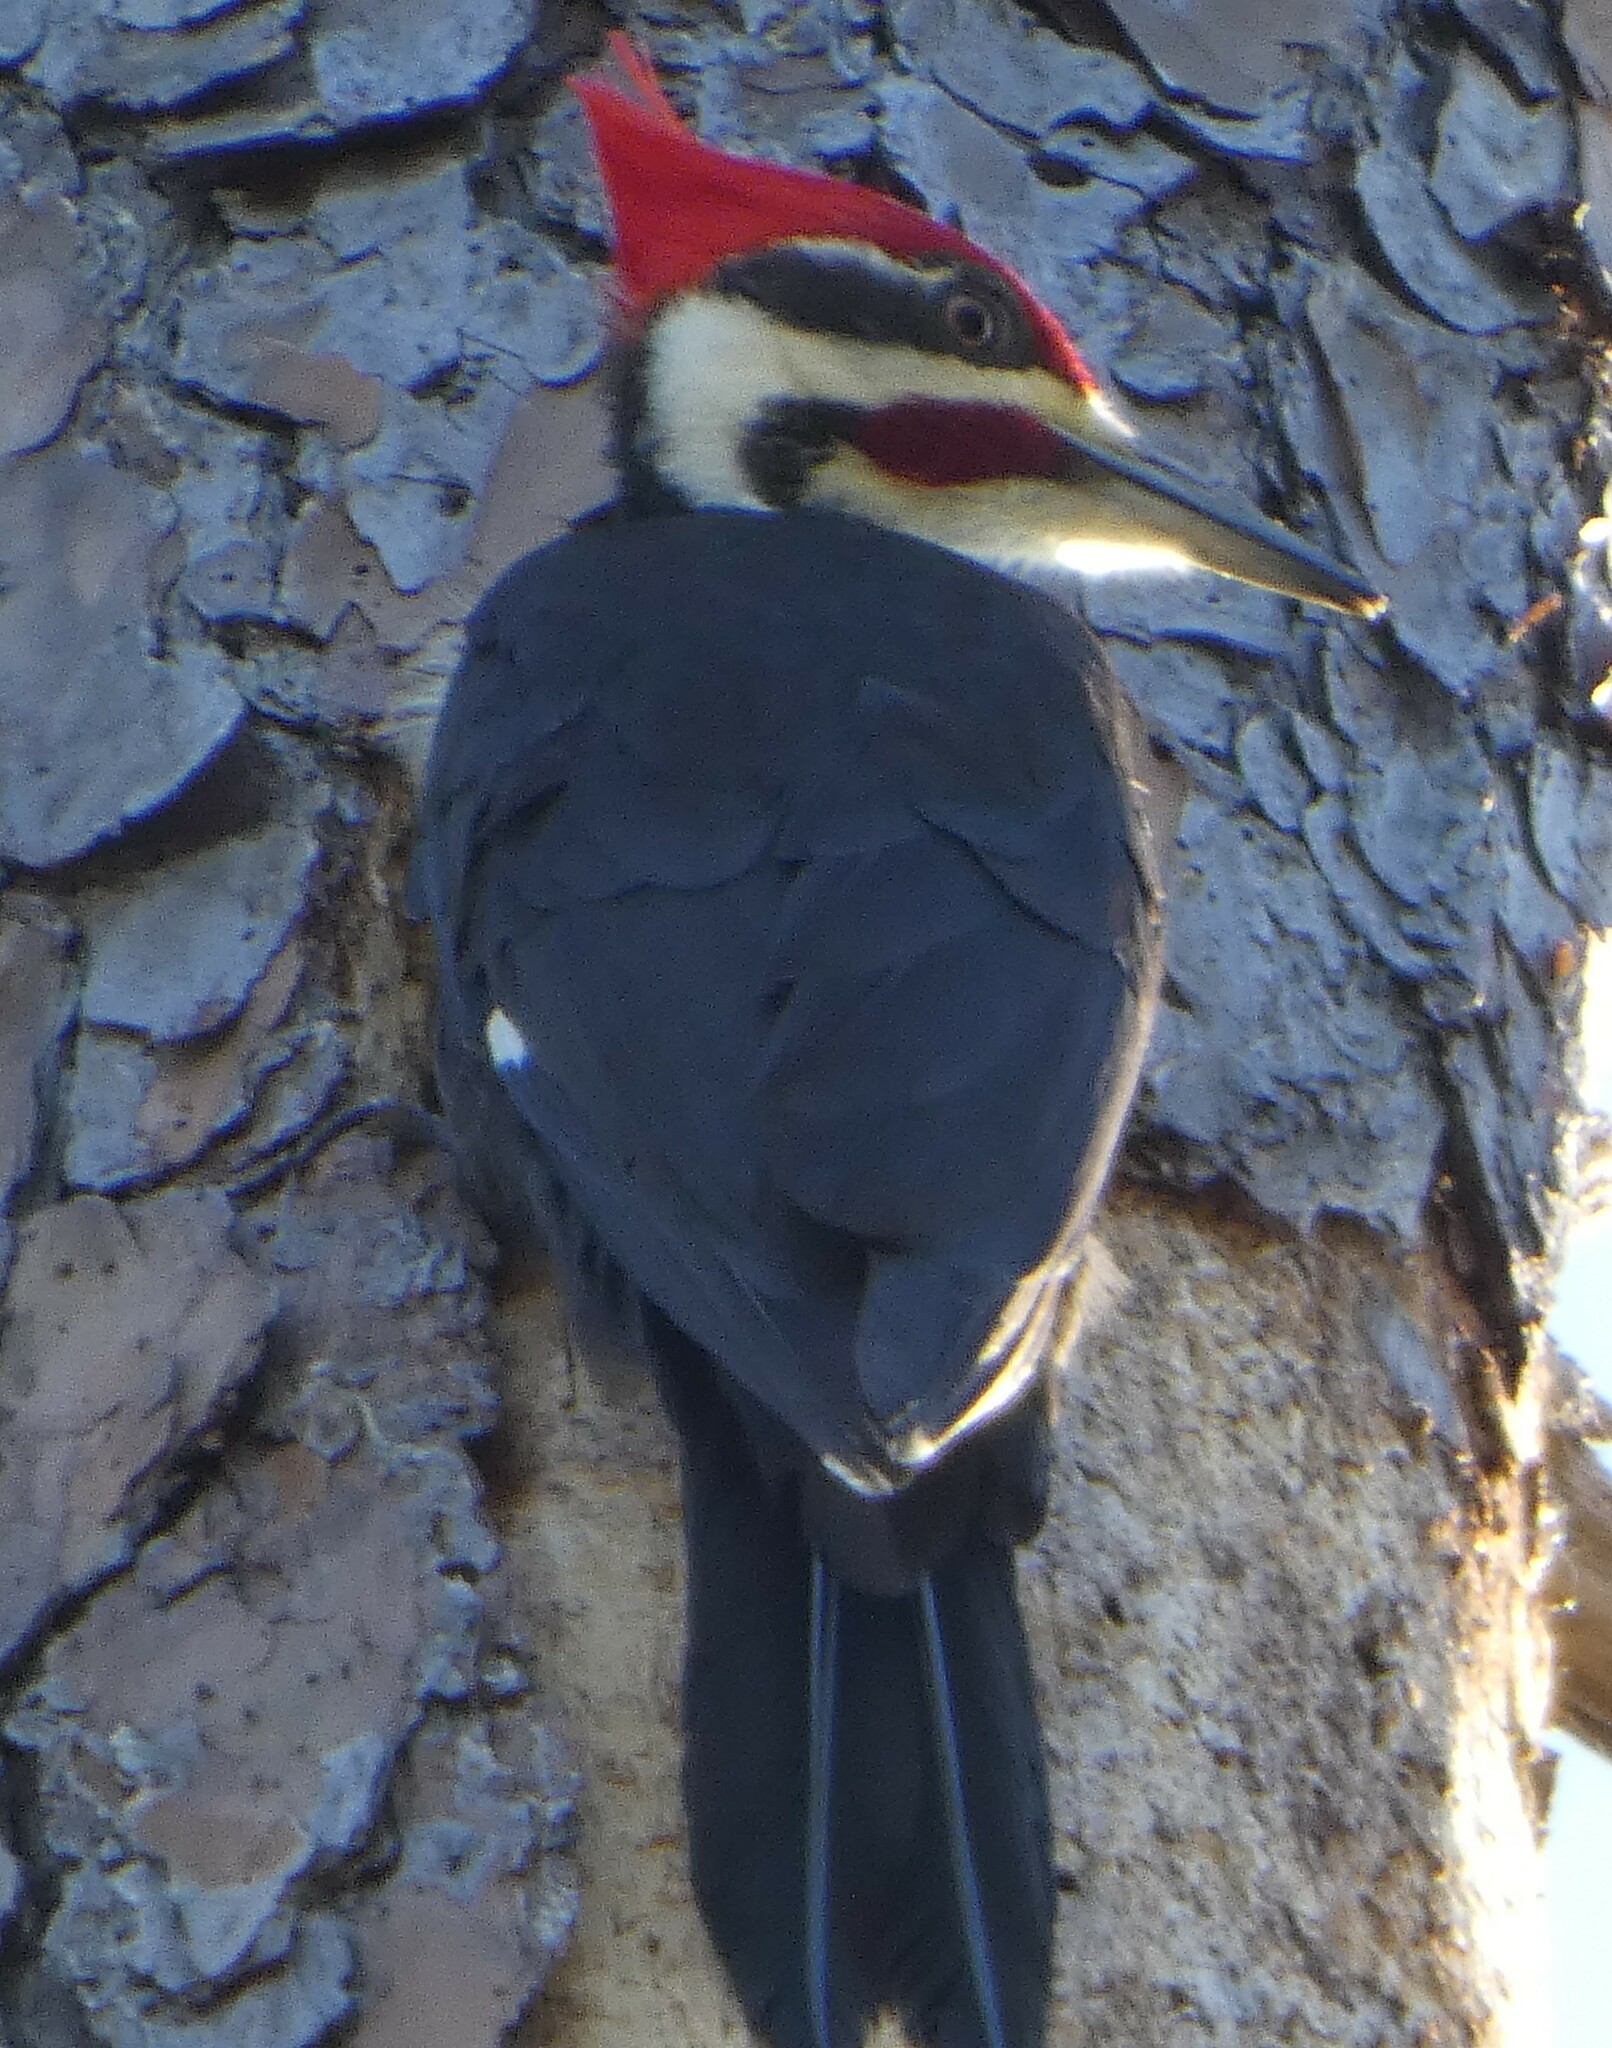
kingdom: Animalia
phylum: Chordata
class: Aves
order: Piciformes
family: Picidae
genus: Dryocopus
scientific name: Dryocopus pileatus
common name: Pileated woodpecker
